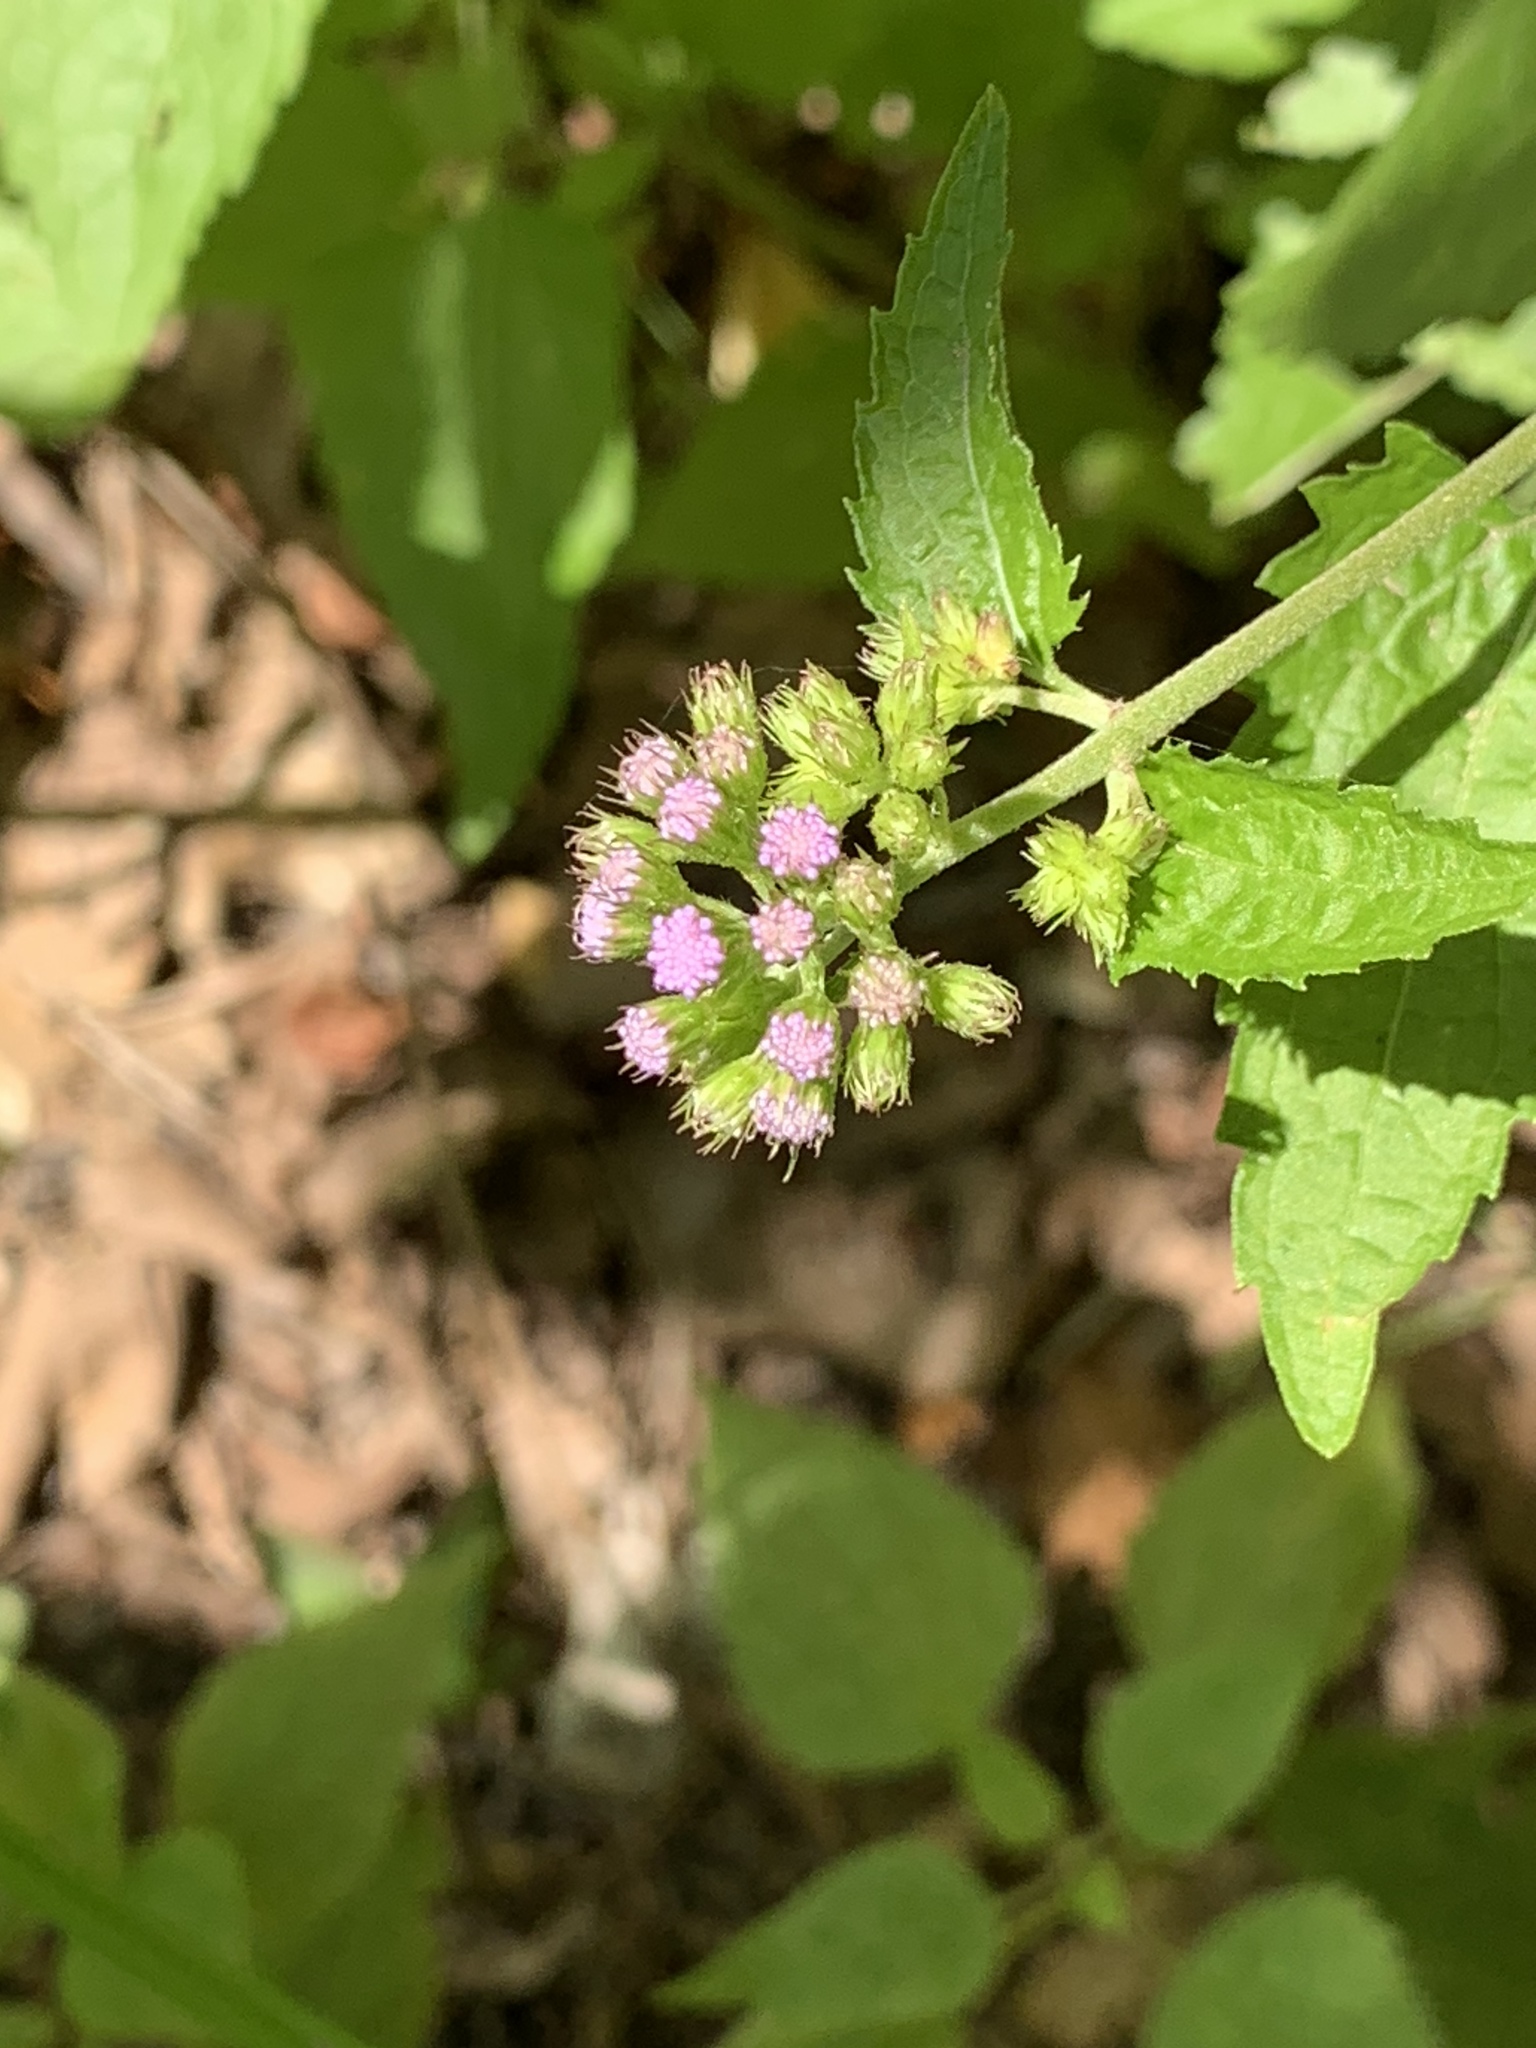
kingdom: Plantae
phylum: Tracheophyta
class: Magnoliopsida
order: Asterales
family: Asteraceae
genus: Conoclinium
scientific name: Conoclinium coelestinum
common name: Blue mistflower
